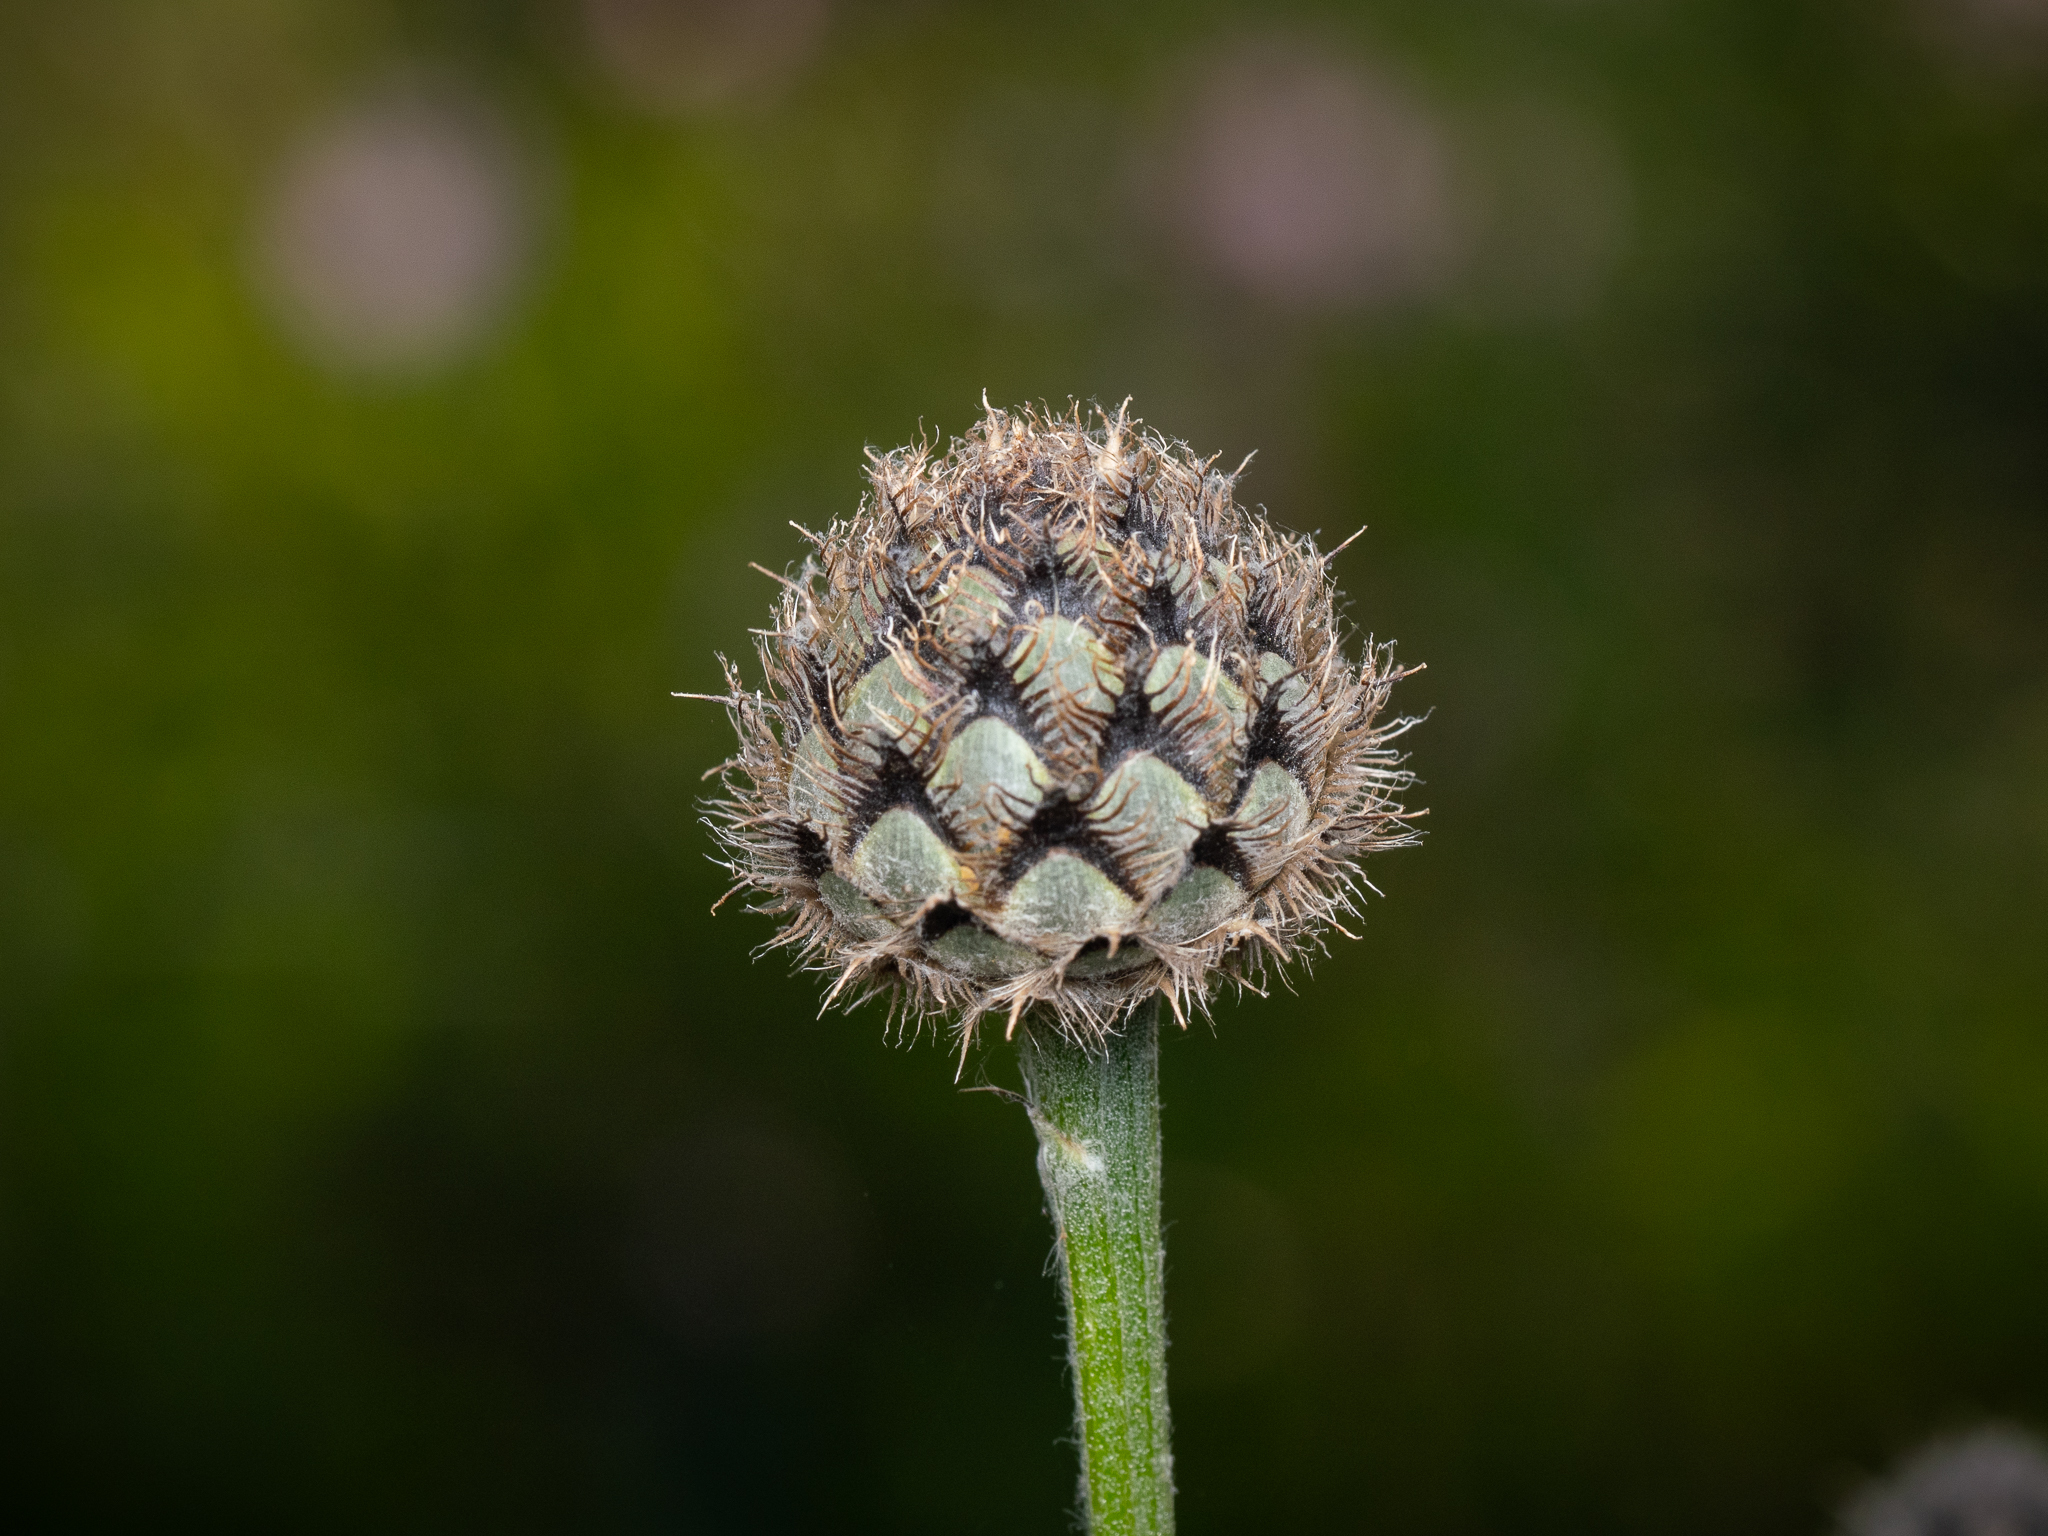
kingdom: Plantae
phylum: Tracheophyta
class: Magnoliopsida
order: Asterales
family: Asteraceae
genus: Centaurea
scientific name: Centaurea scabiosa
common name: Greater knapweed
